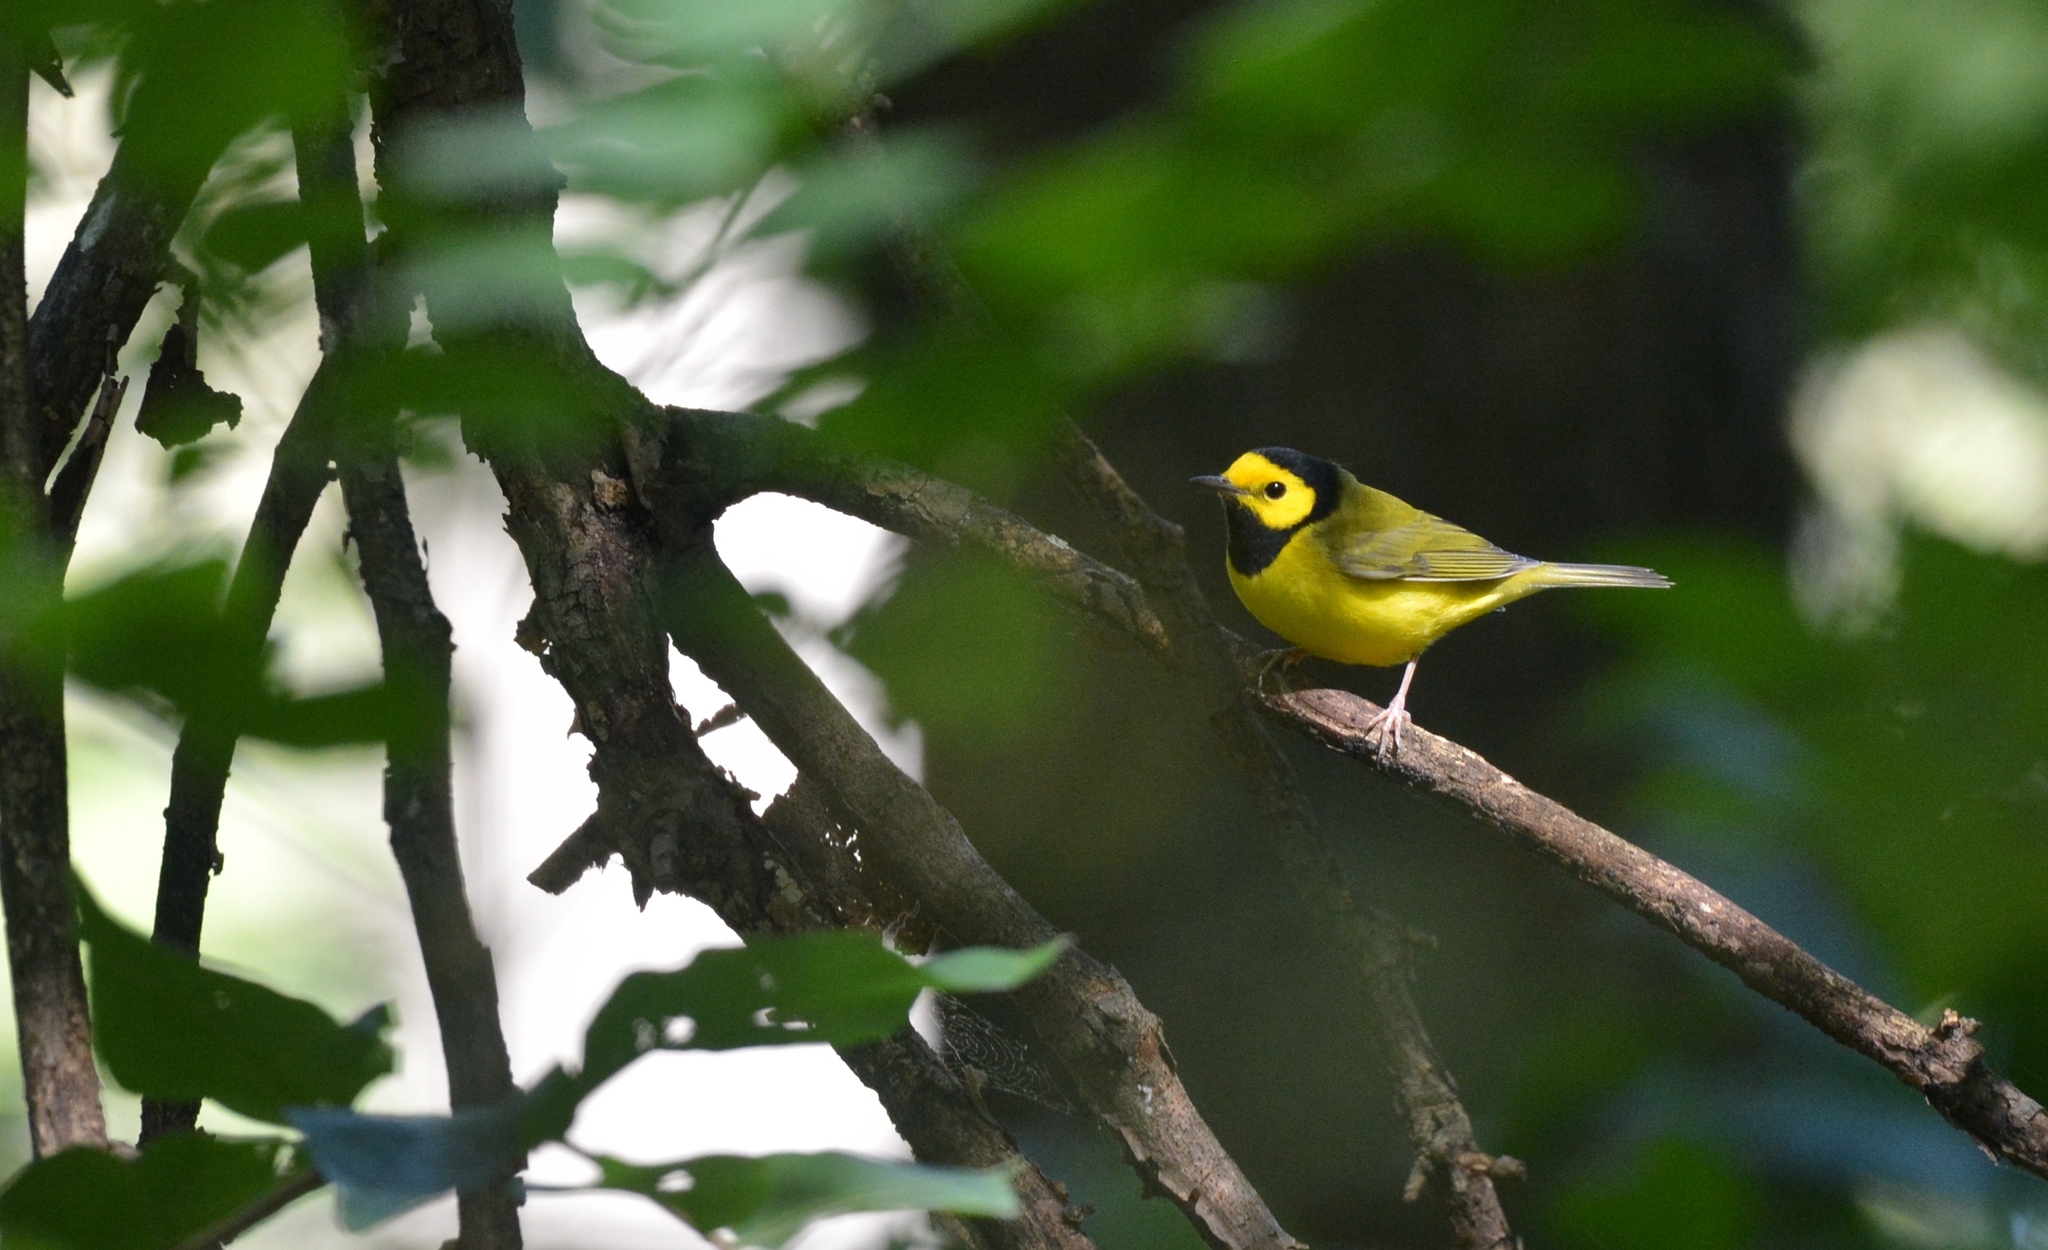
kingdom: Animalia
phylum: Chordata
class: Aves
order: Passeriformes
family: Parulidae
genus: Setophaga
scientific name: Setophaga citrina
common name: Hooded warbler
